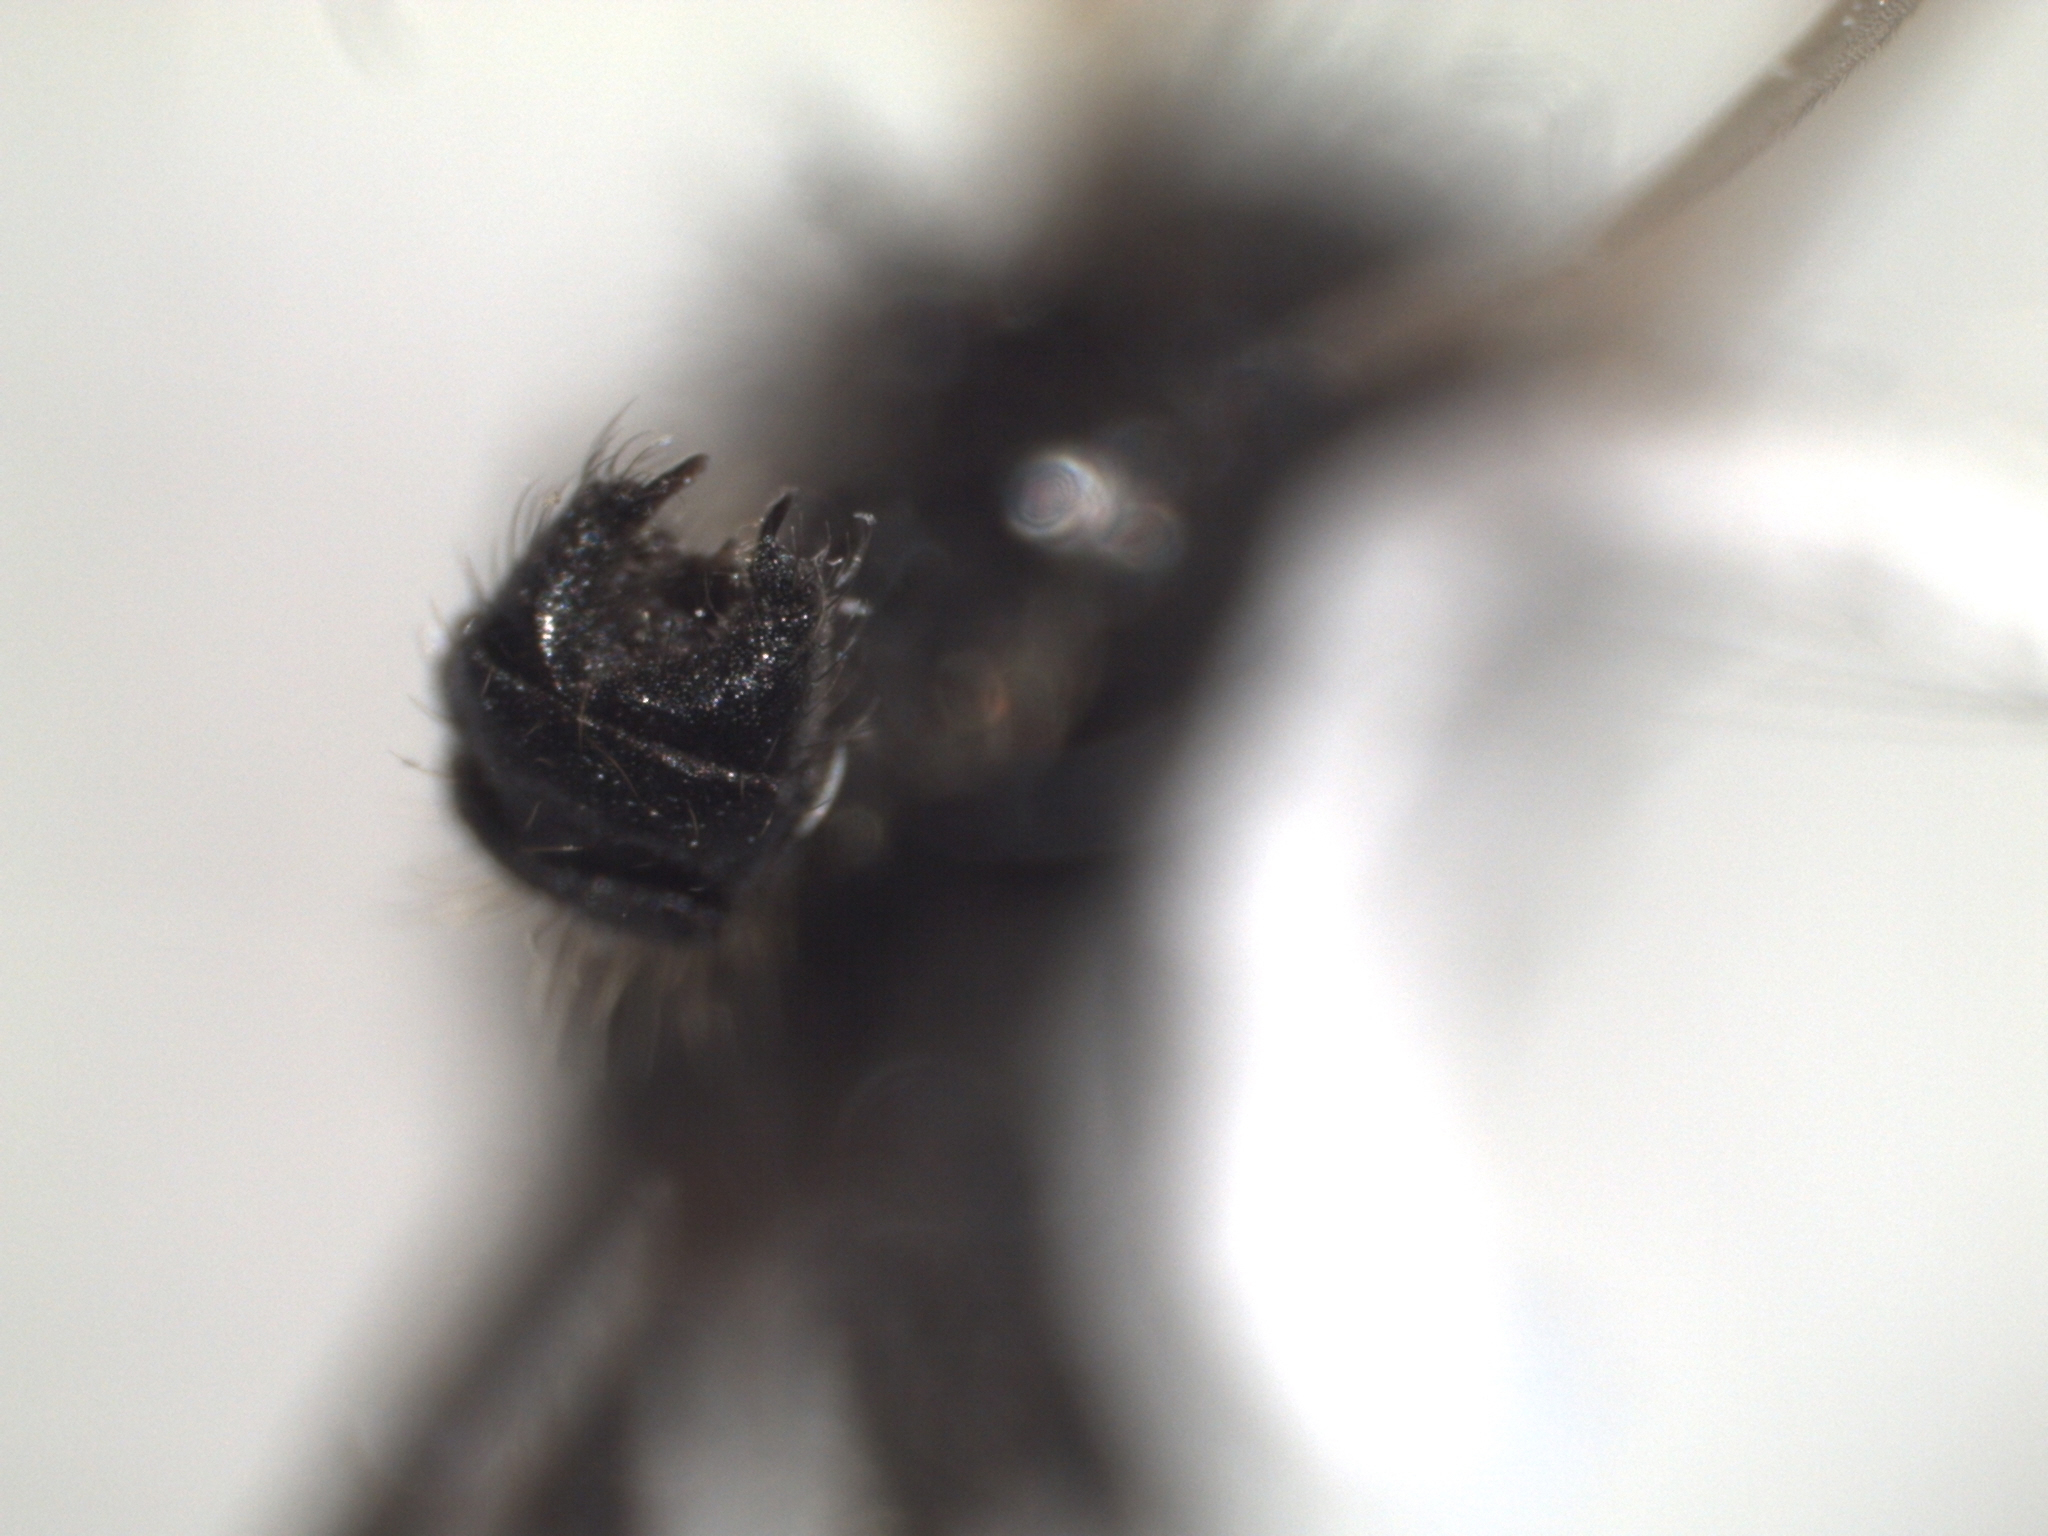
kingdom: Animalia
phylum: Arthropoda
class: Insecta
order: Diptera
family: Bibionidae
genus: Bibio
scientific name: Bibio slossonae
